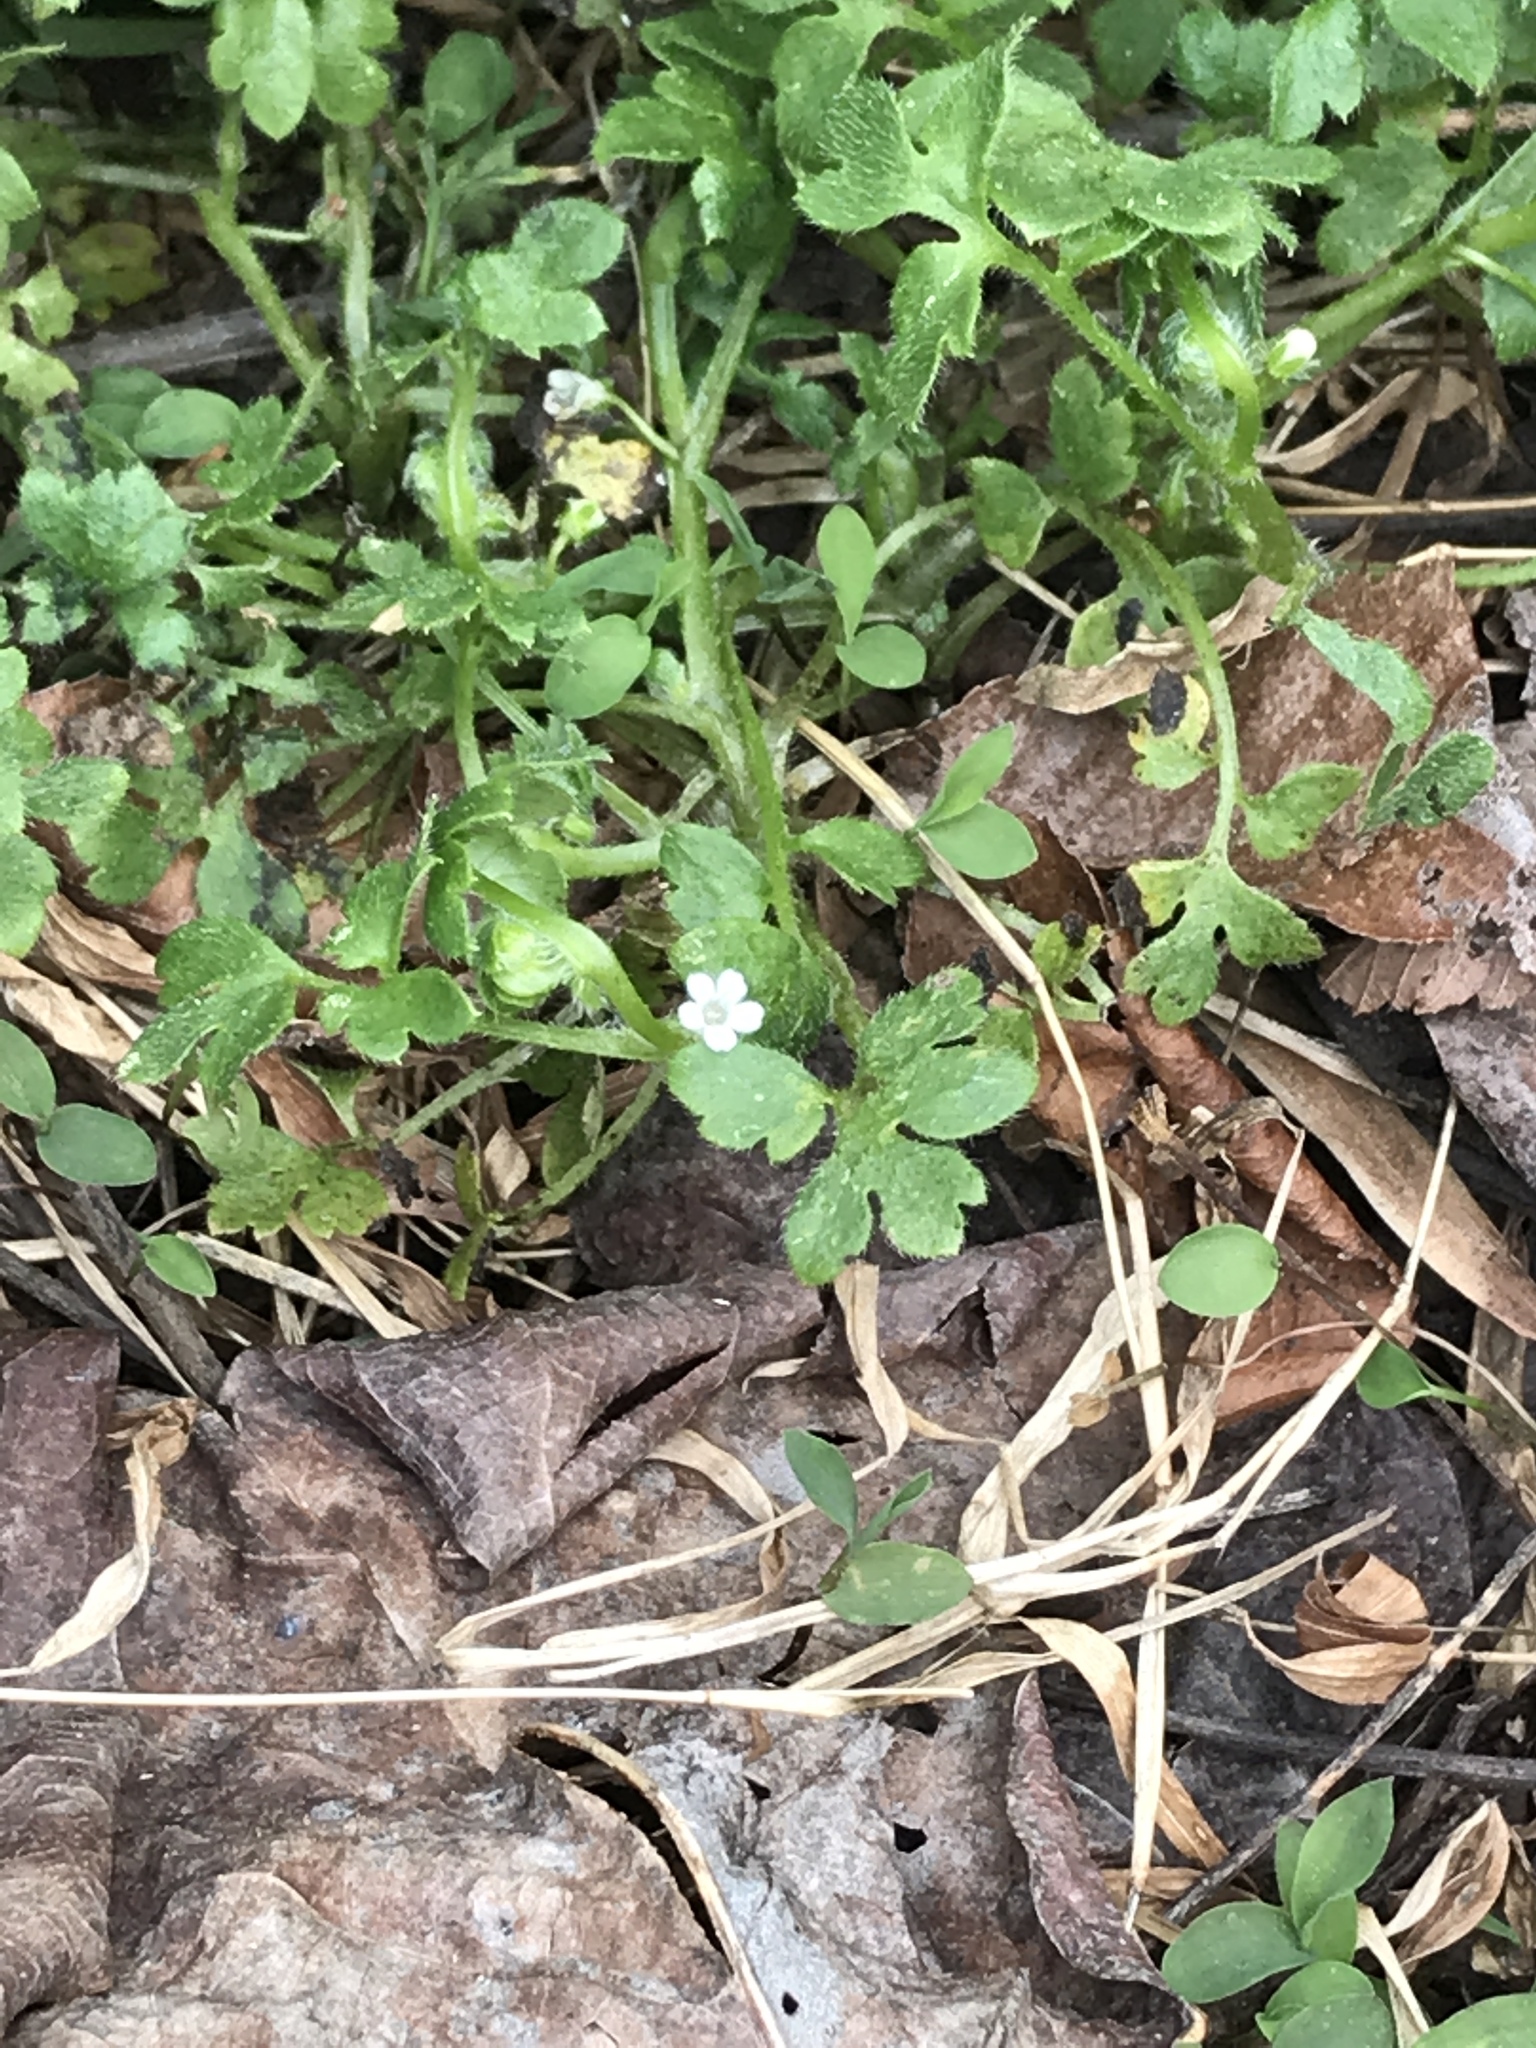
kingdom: Plantae
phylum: Tracheophyta
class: Magnoliopsida
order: Boraginales
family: Hydrophyllaceae
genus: Nemophila
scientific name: Nemophila aphylla
